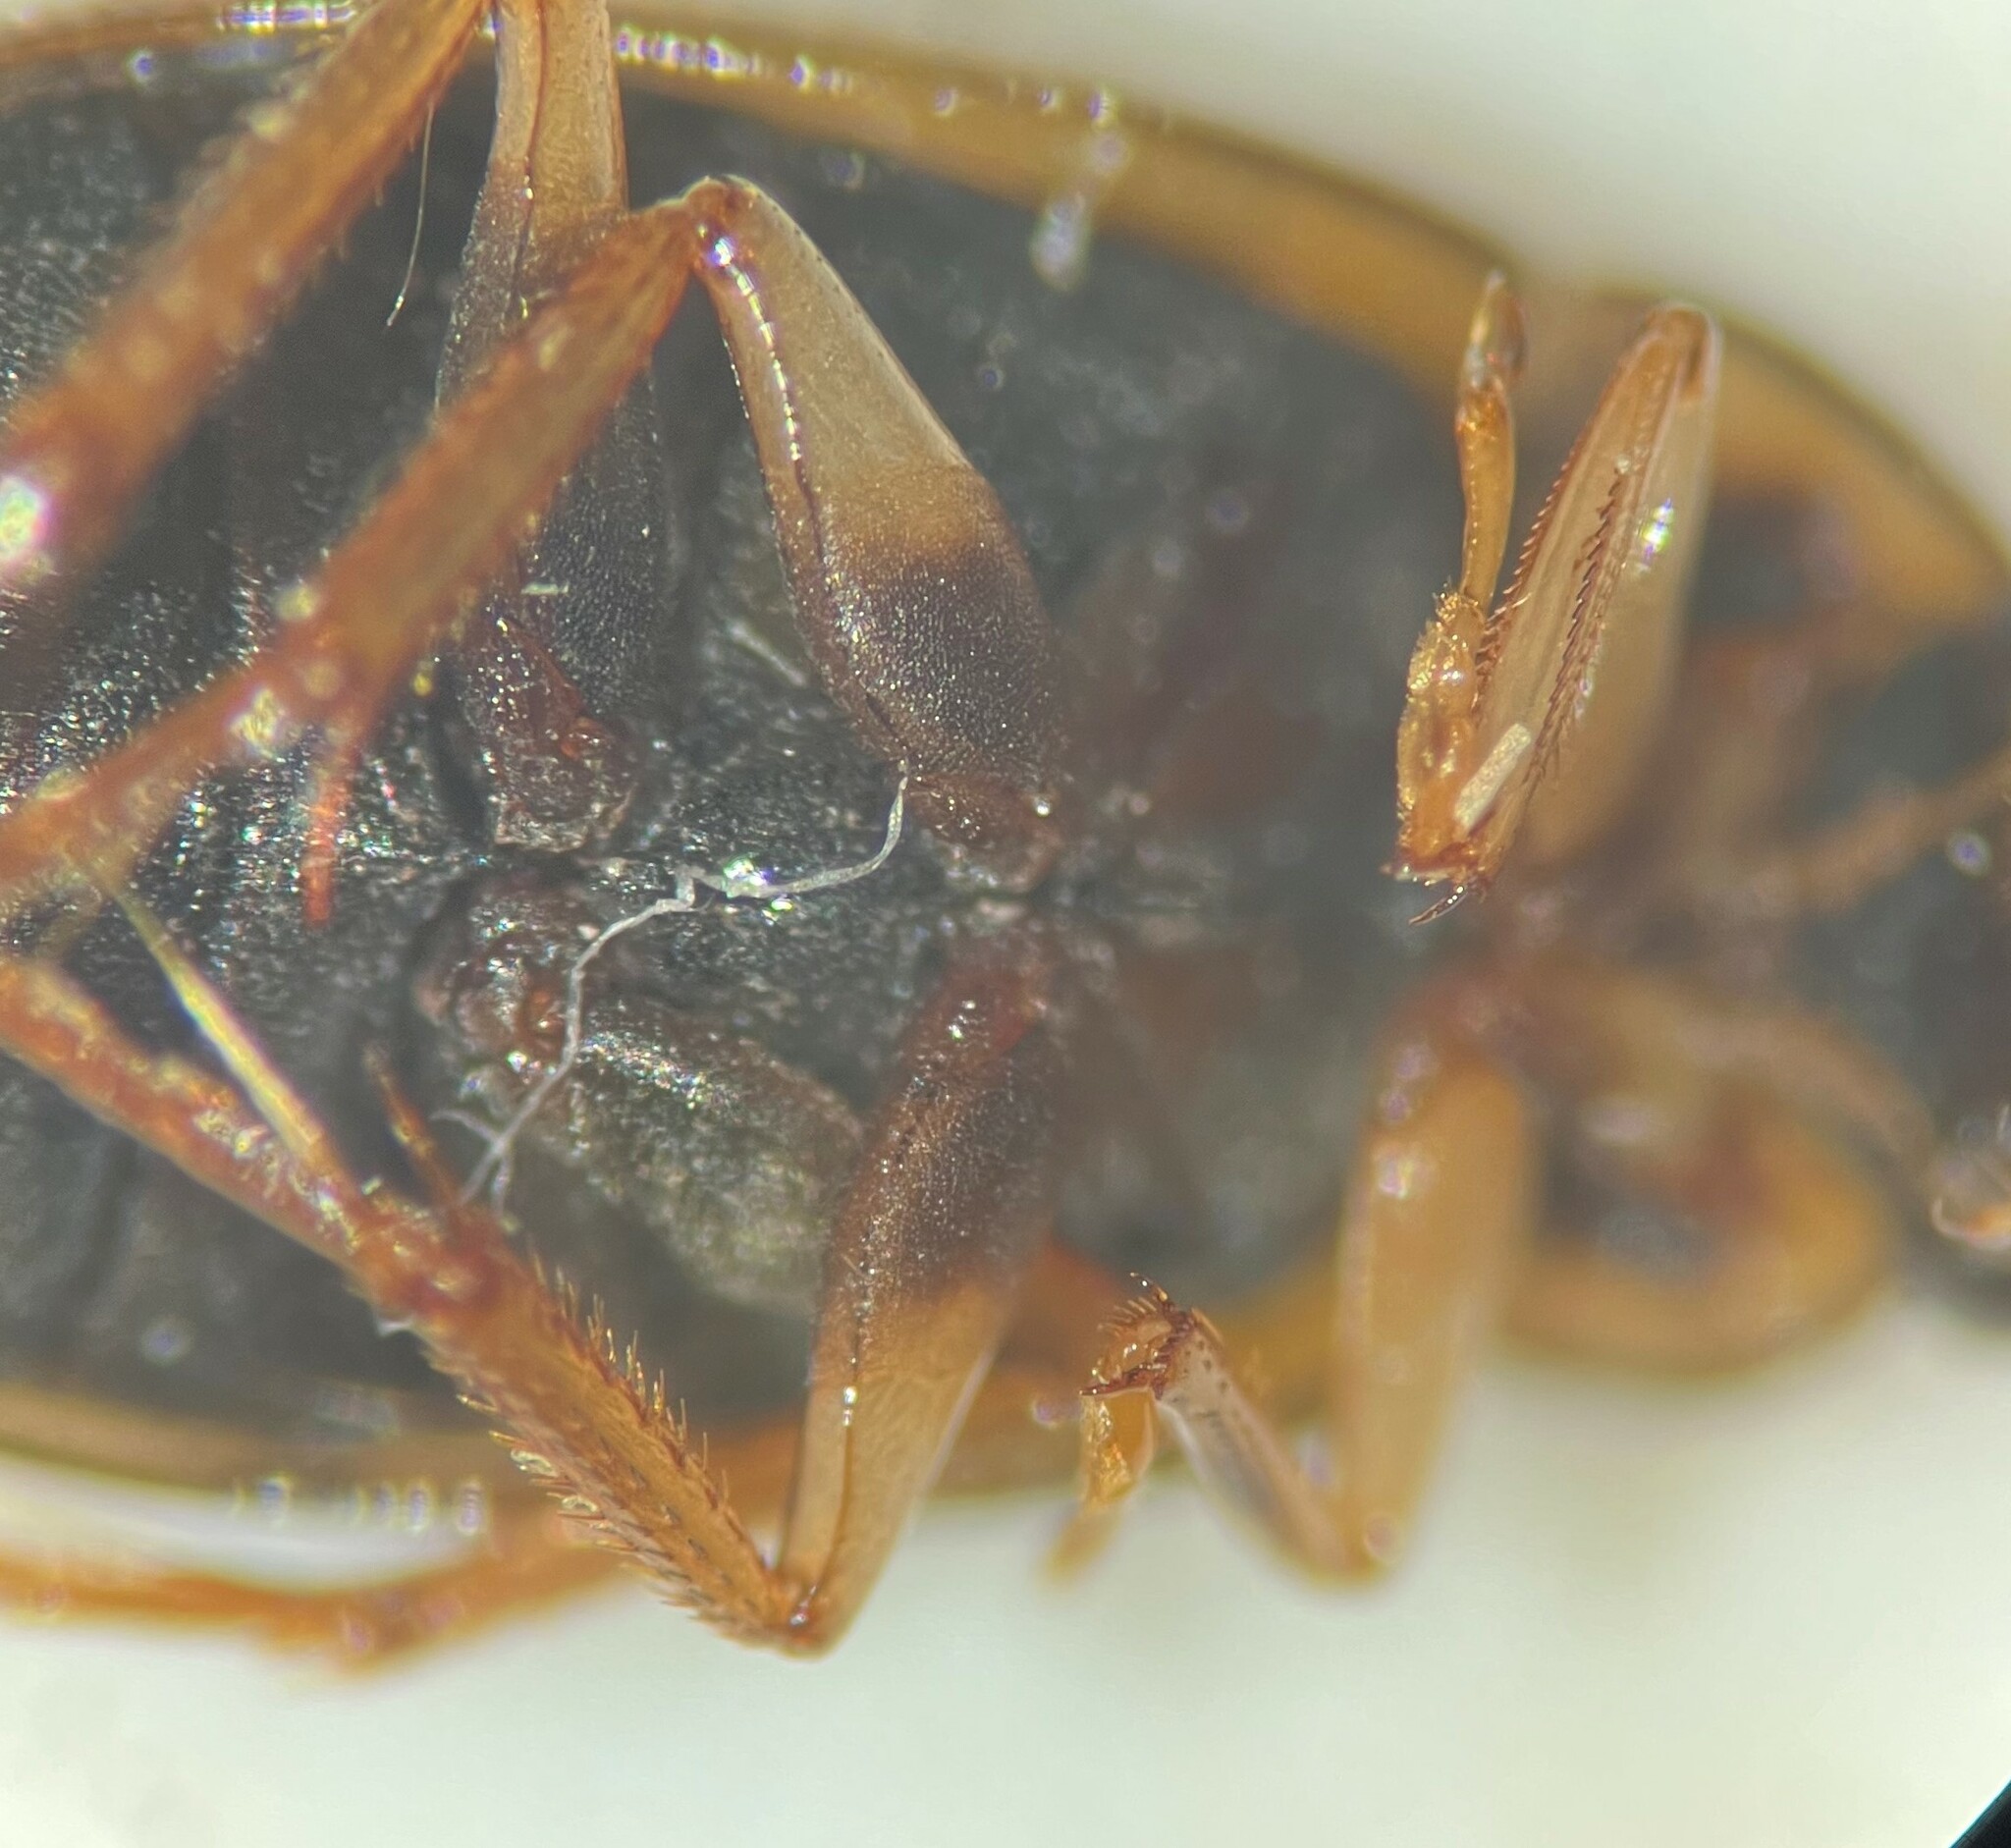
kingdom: Animalia
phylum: Arthropoda
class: Insecta
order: Coleoptera
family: Hydrophilidae
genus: Berosus
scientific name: Berosus sayi
